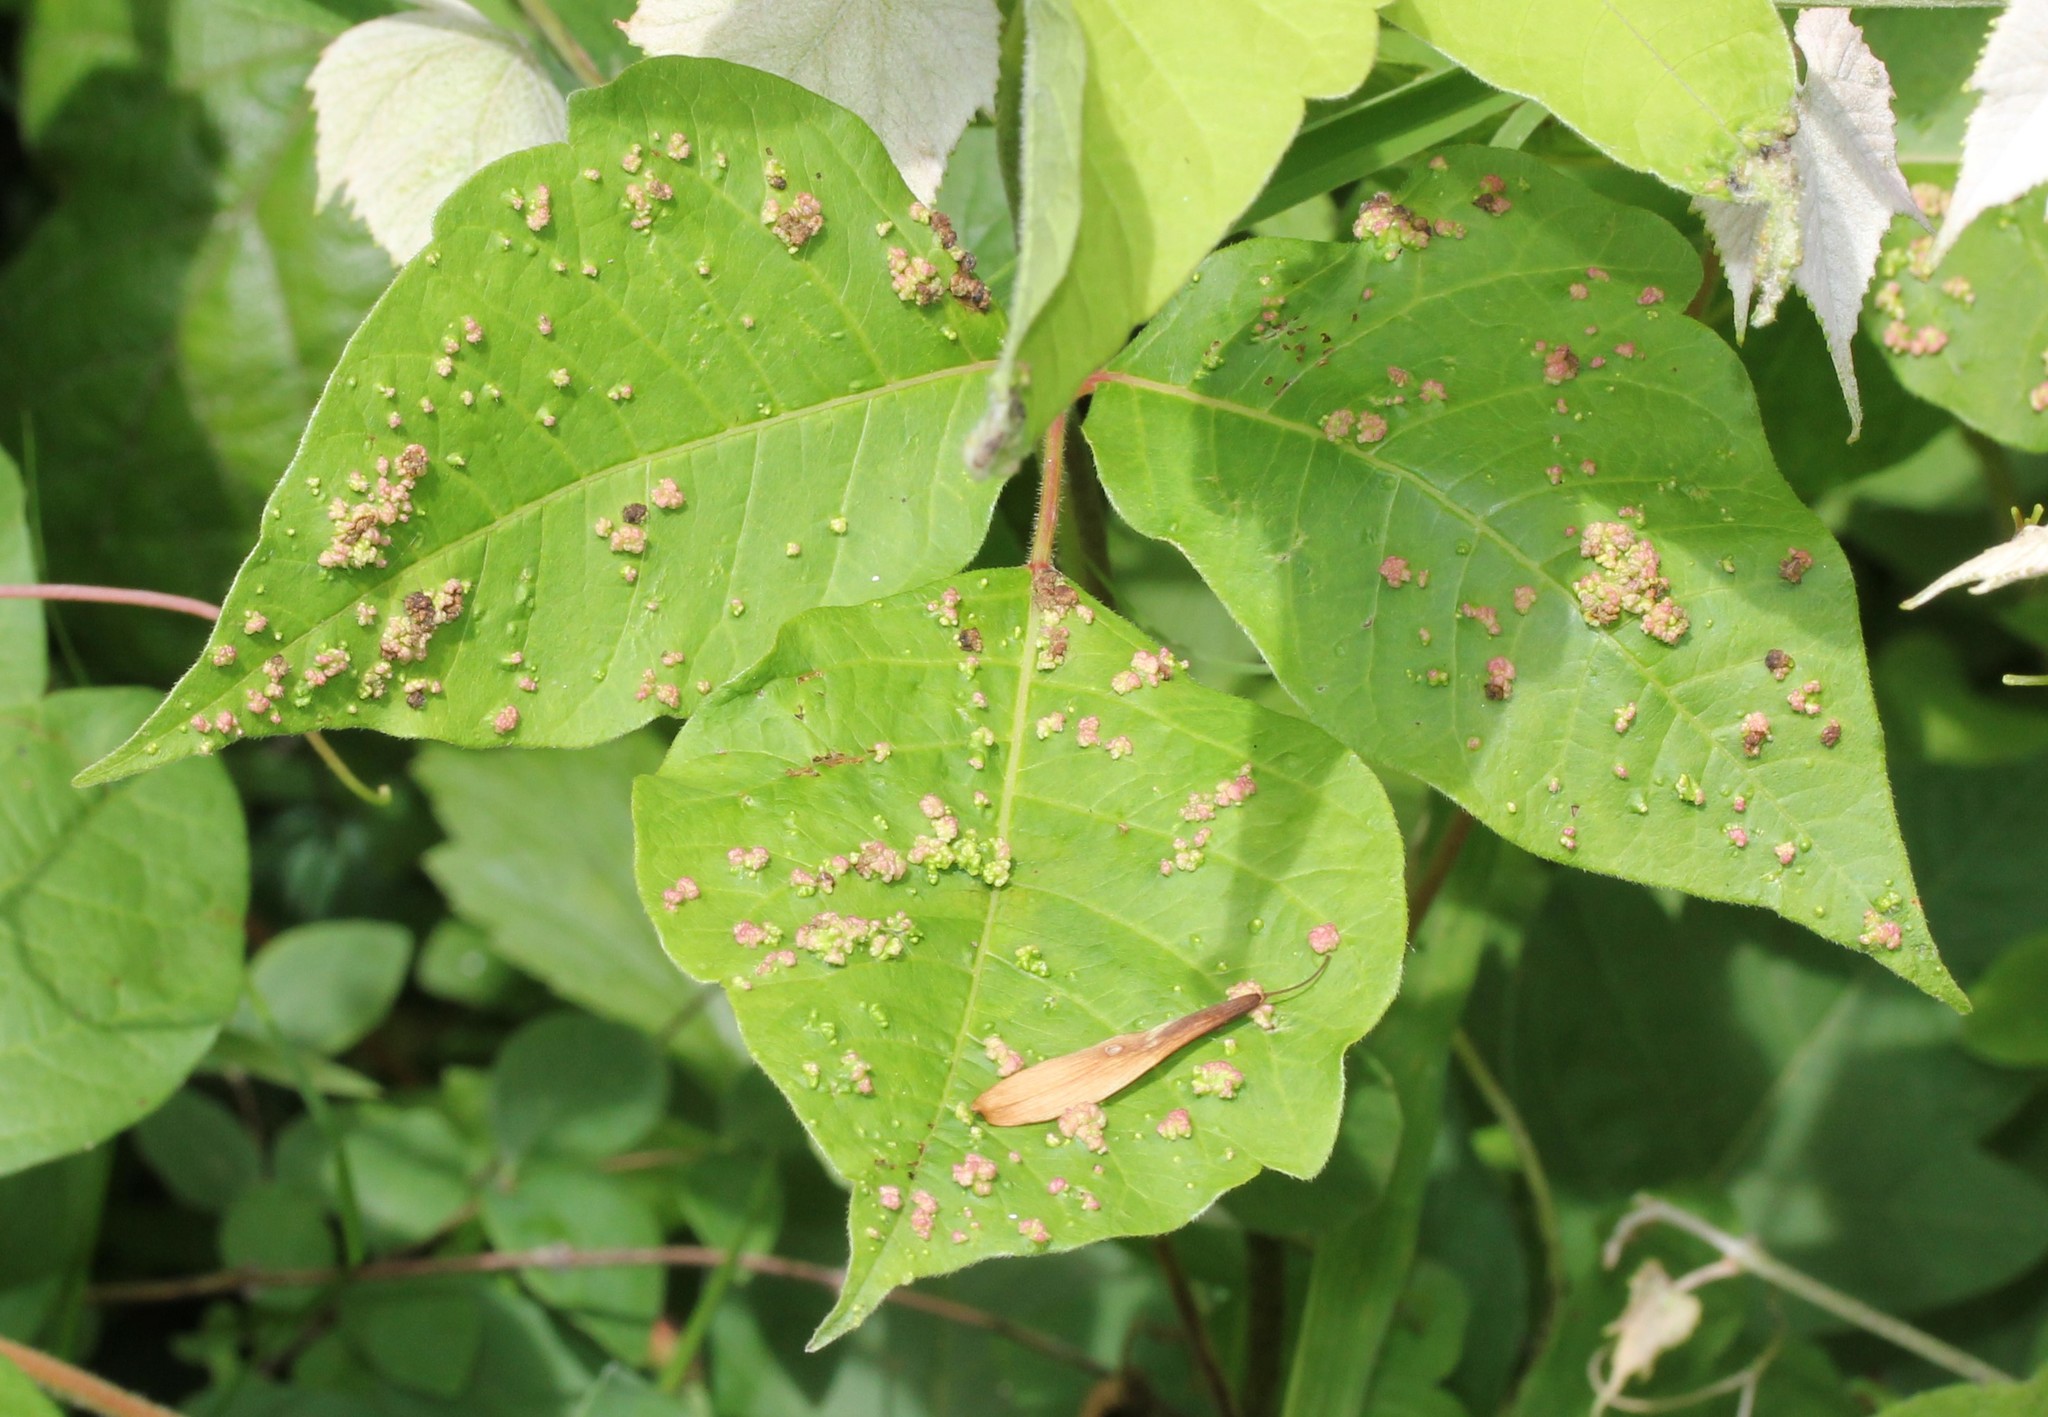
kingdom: Animalia
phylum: Arthropoda
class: Arachnida
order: Trombidiformes
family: Eriophyidae
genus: Aculops
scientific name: Aculops
